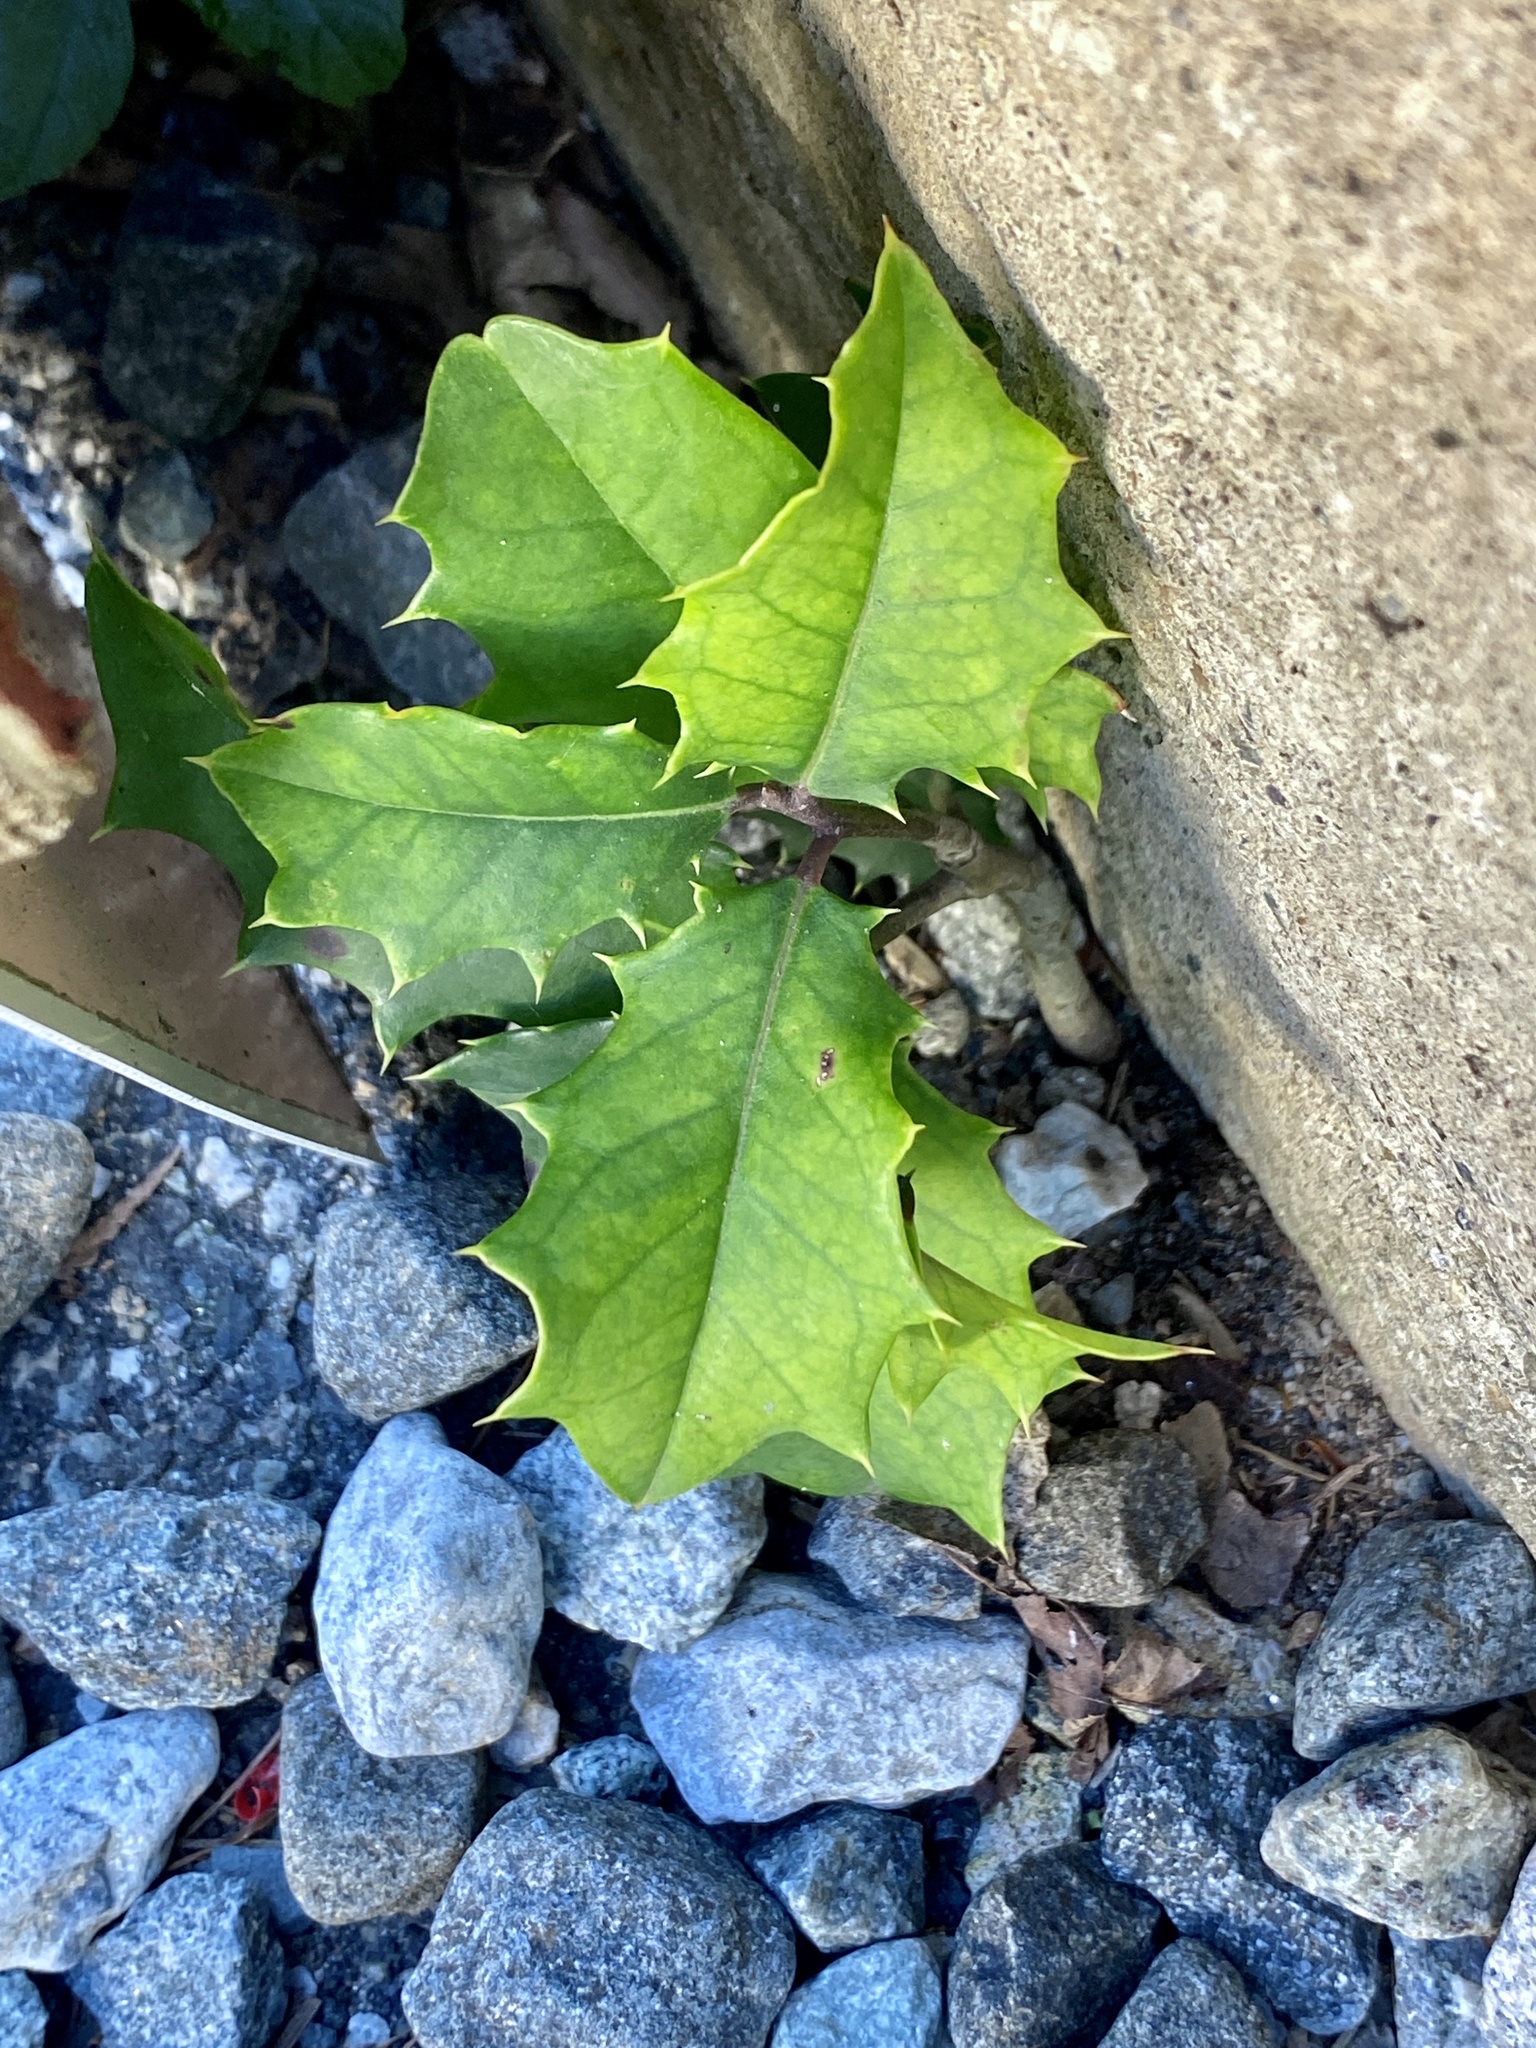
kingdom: Plantae
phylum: Tracheophyta
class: Magnoliopsida
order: Aquifoliales
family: Aquifoliaceae
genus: Ilex
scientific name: Ilex opaca
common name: American holly
